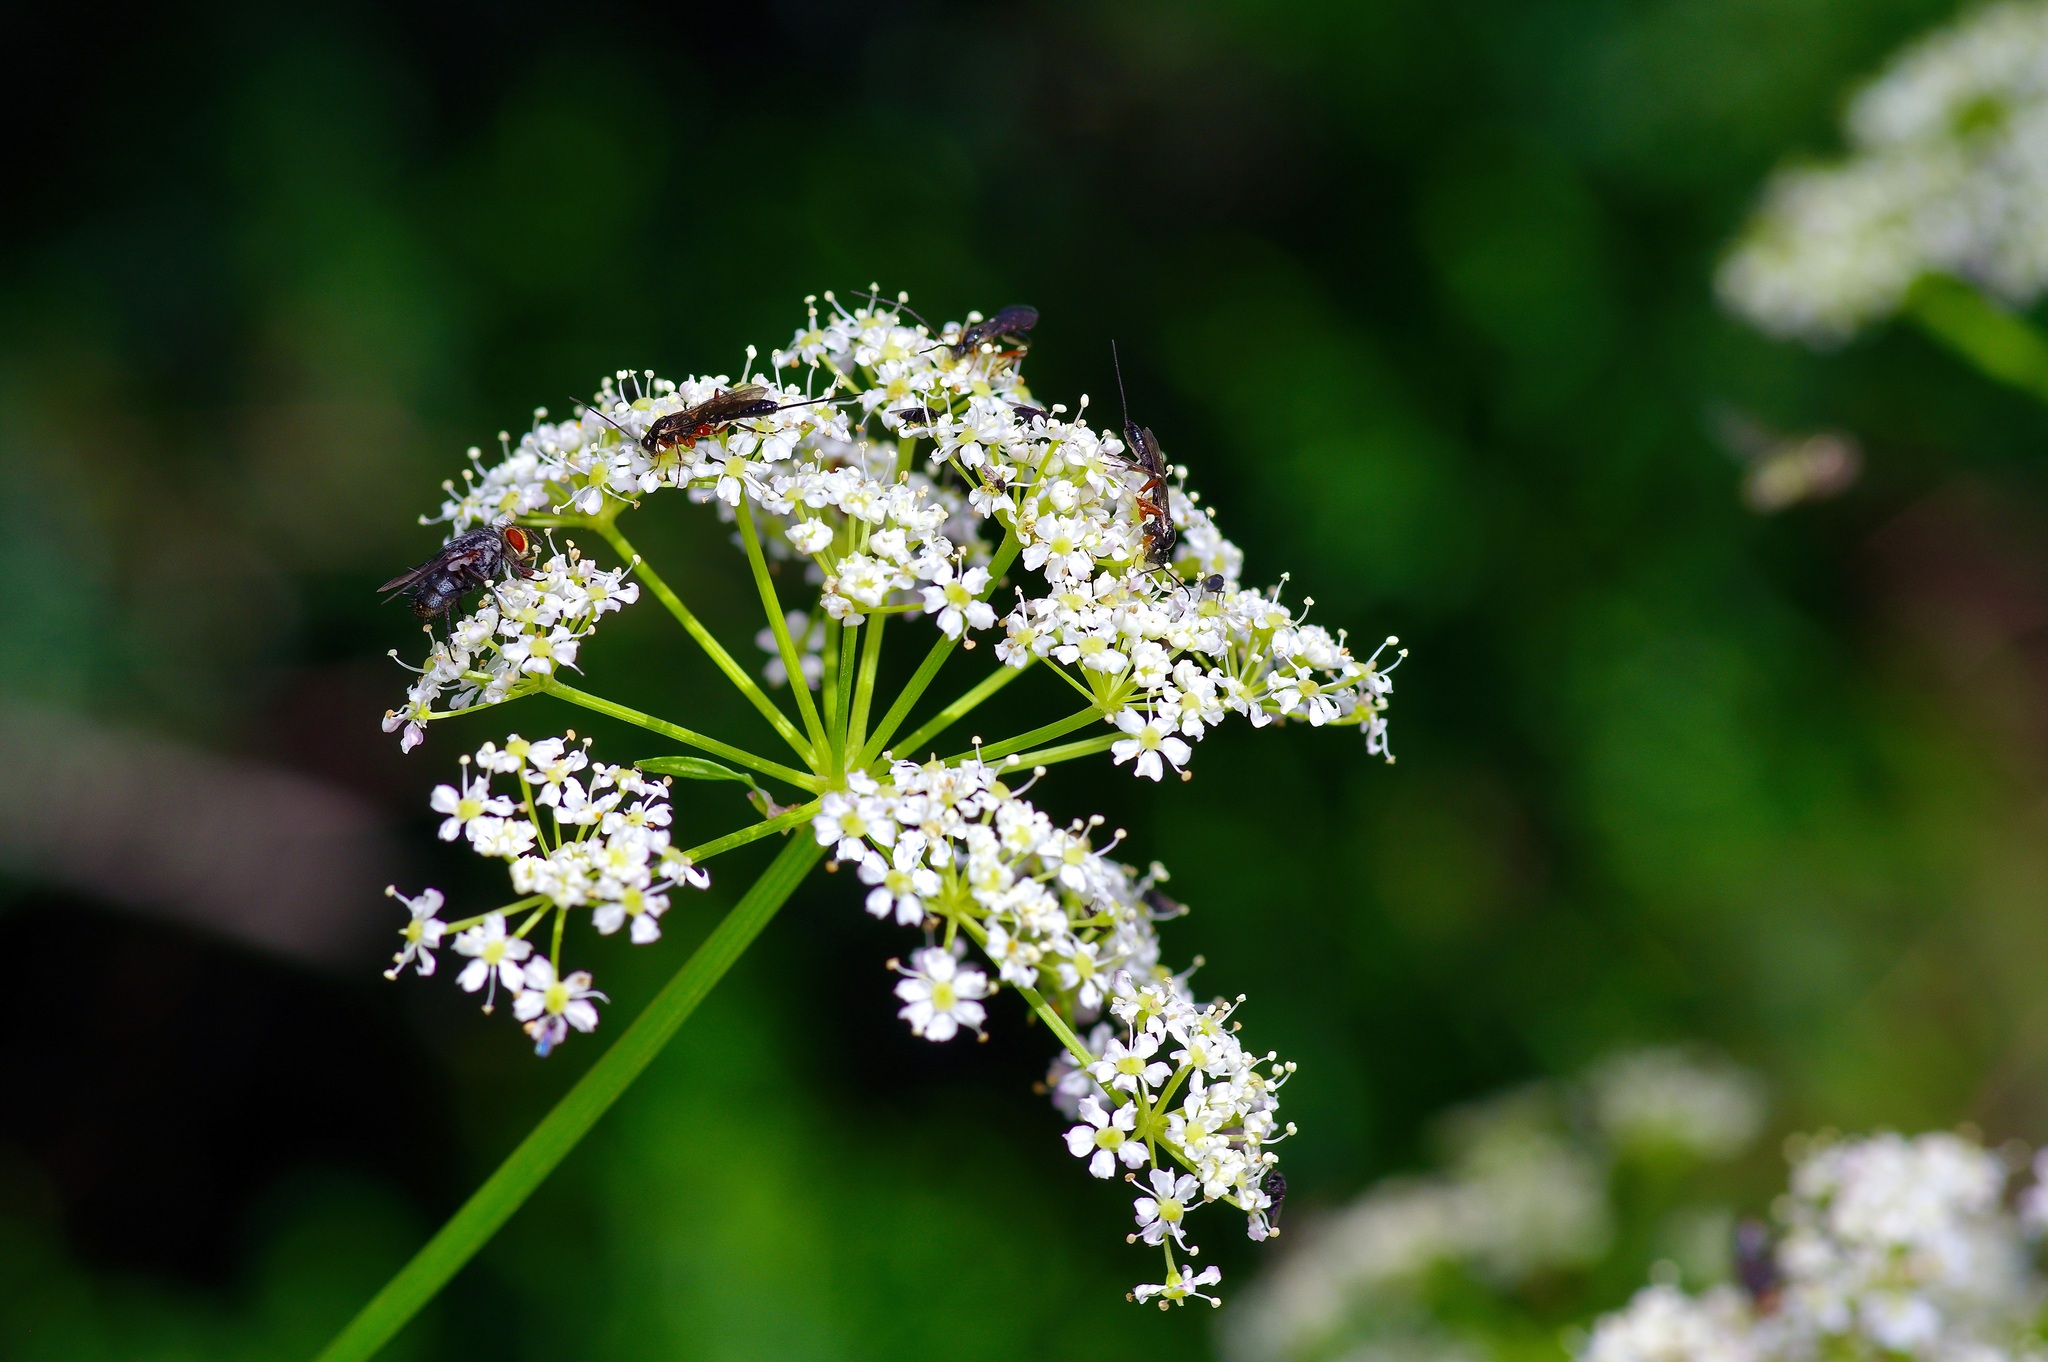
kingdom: Plantae
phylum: Tracheophyta
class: Magnoliopsida
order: Apiales
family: Apiaceae
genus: Heracleum
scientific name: Heracleum maximum
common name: American cow parsnip
